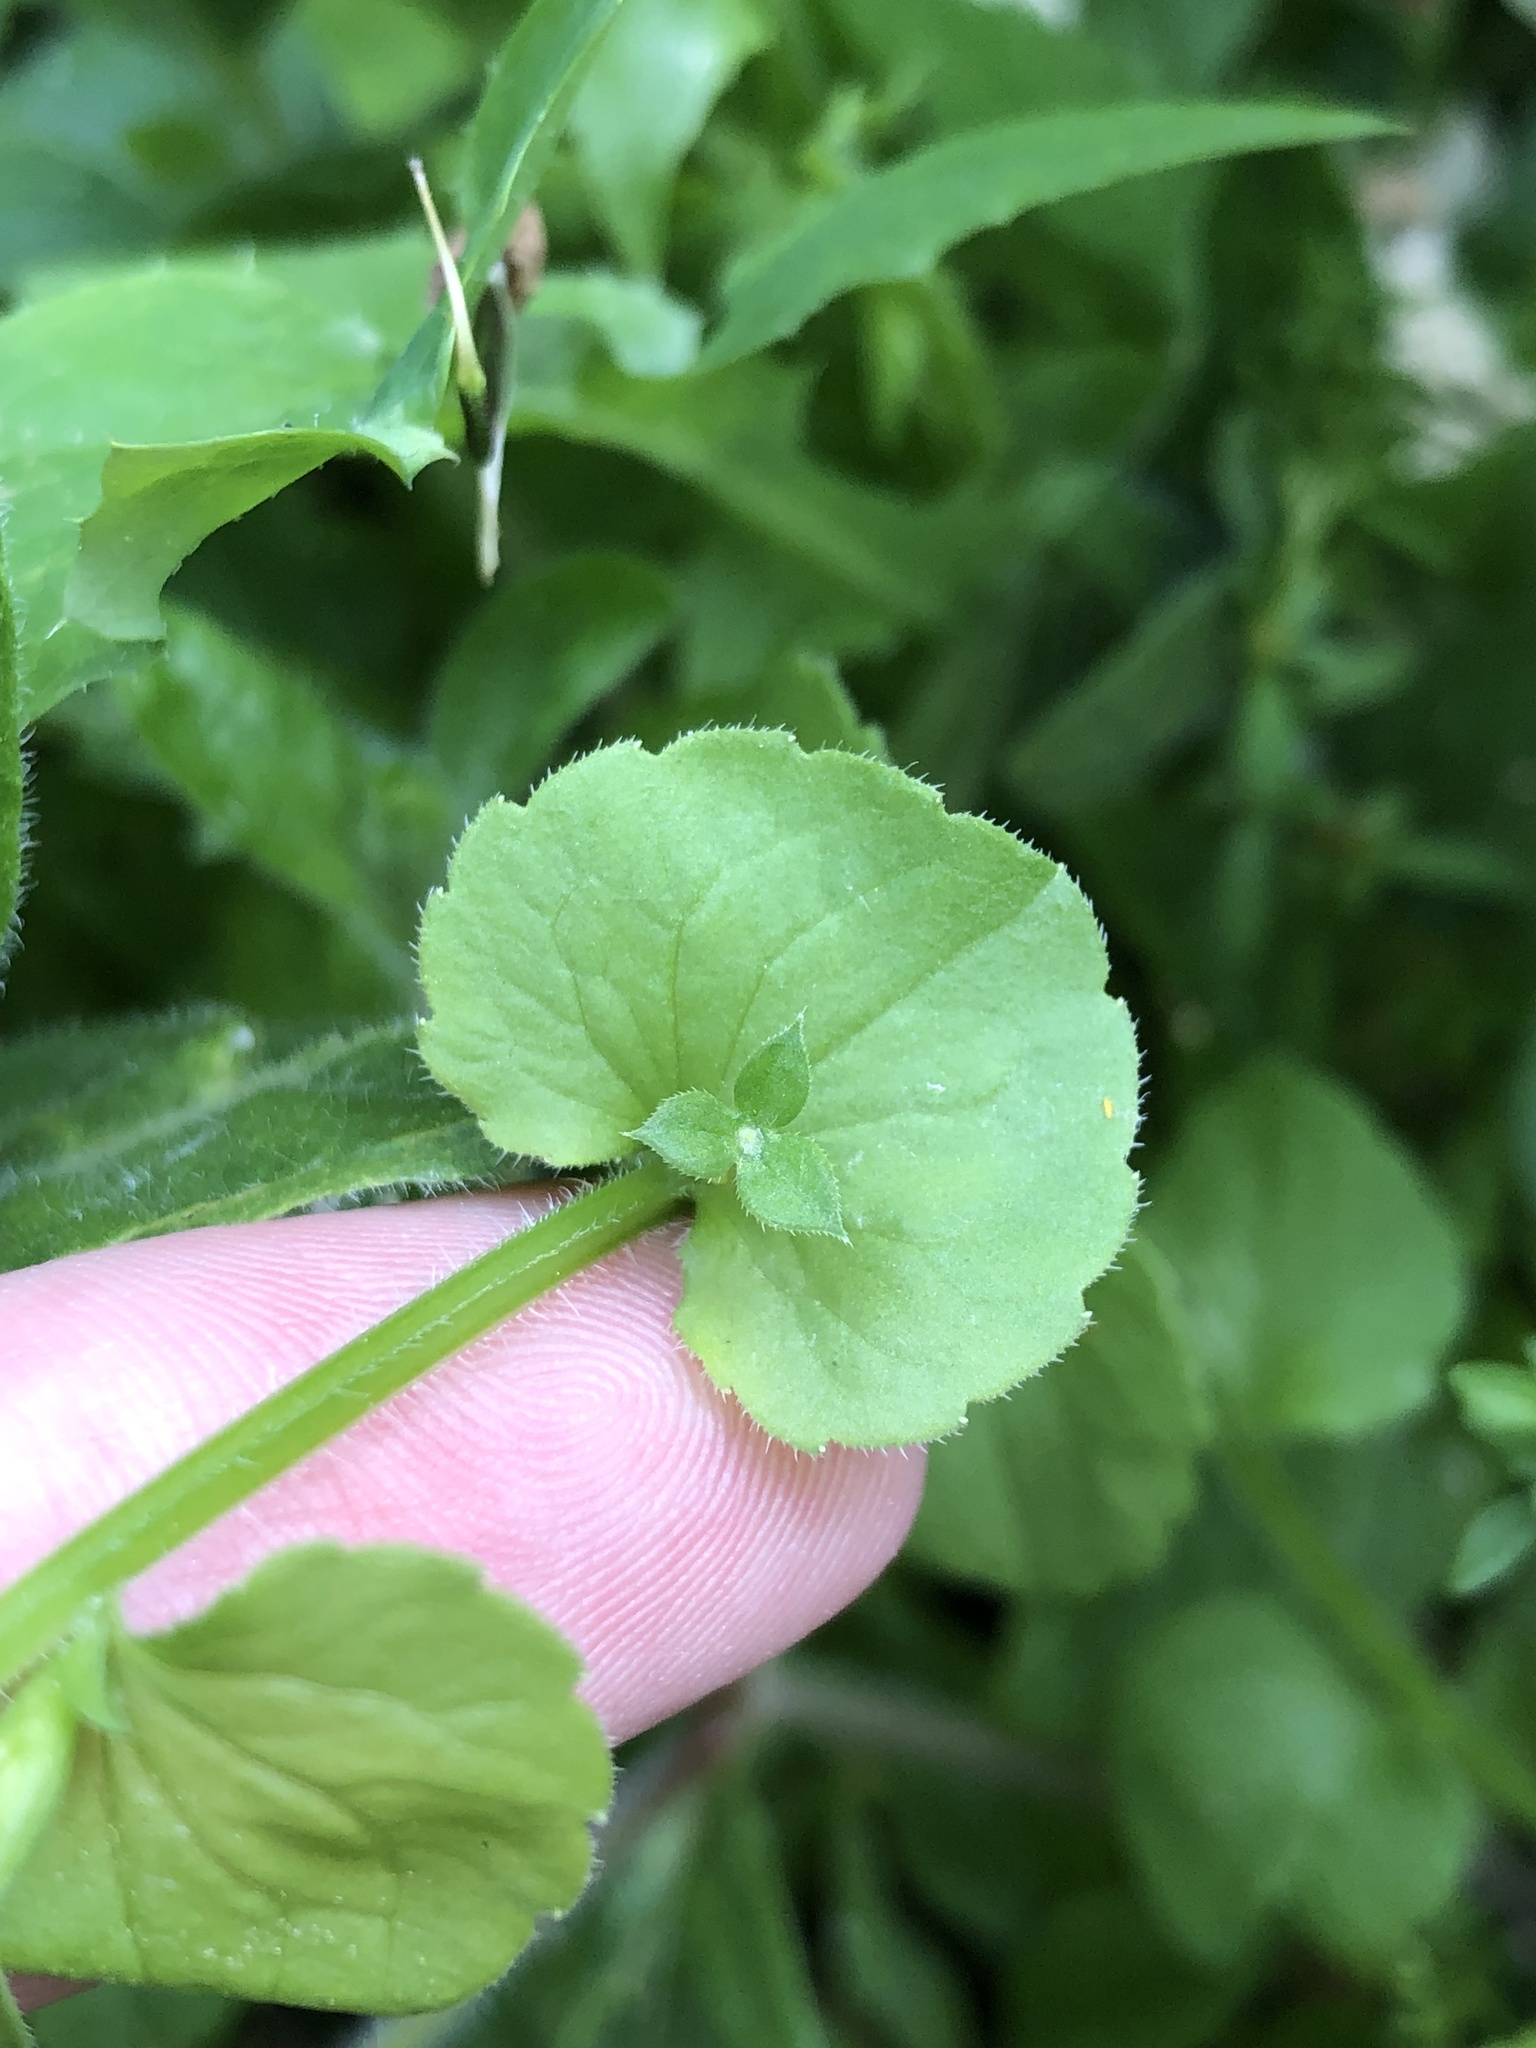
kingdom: Plantae
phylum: Tracheophyta
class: Magnoliopsida
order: Asterales
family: Campanulaceae
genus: Triodanis
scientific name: Triodanis perfoliata
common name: Clasping venus' looking-glass
